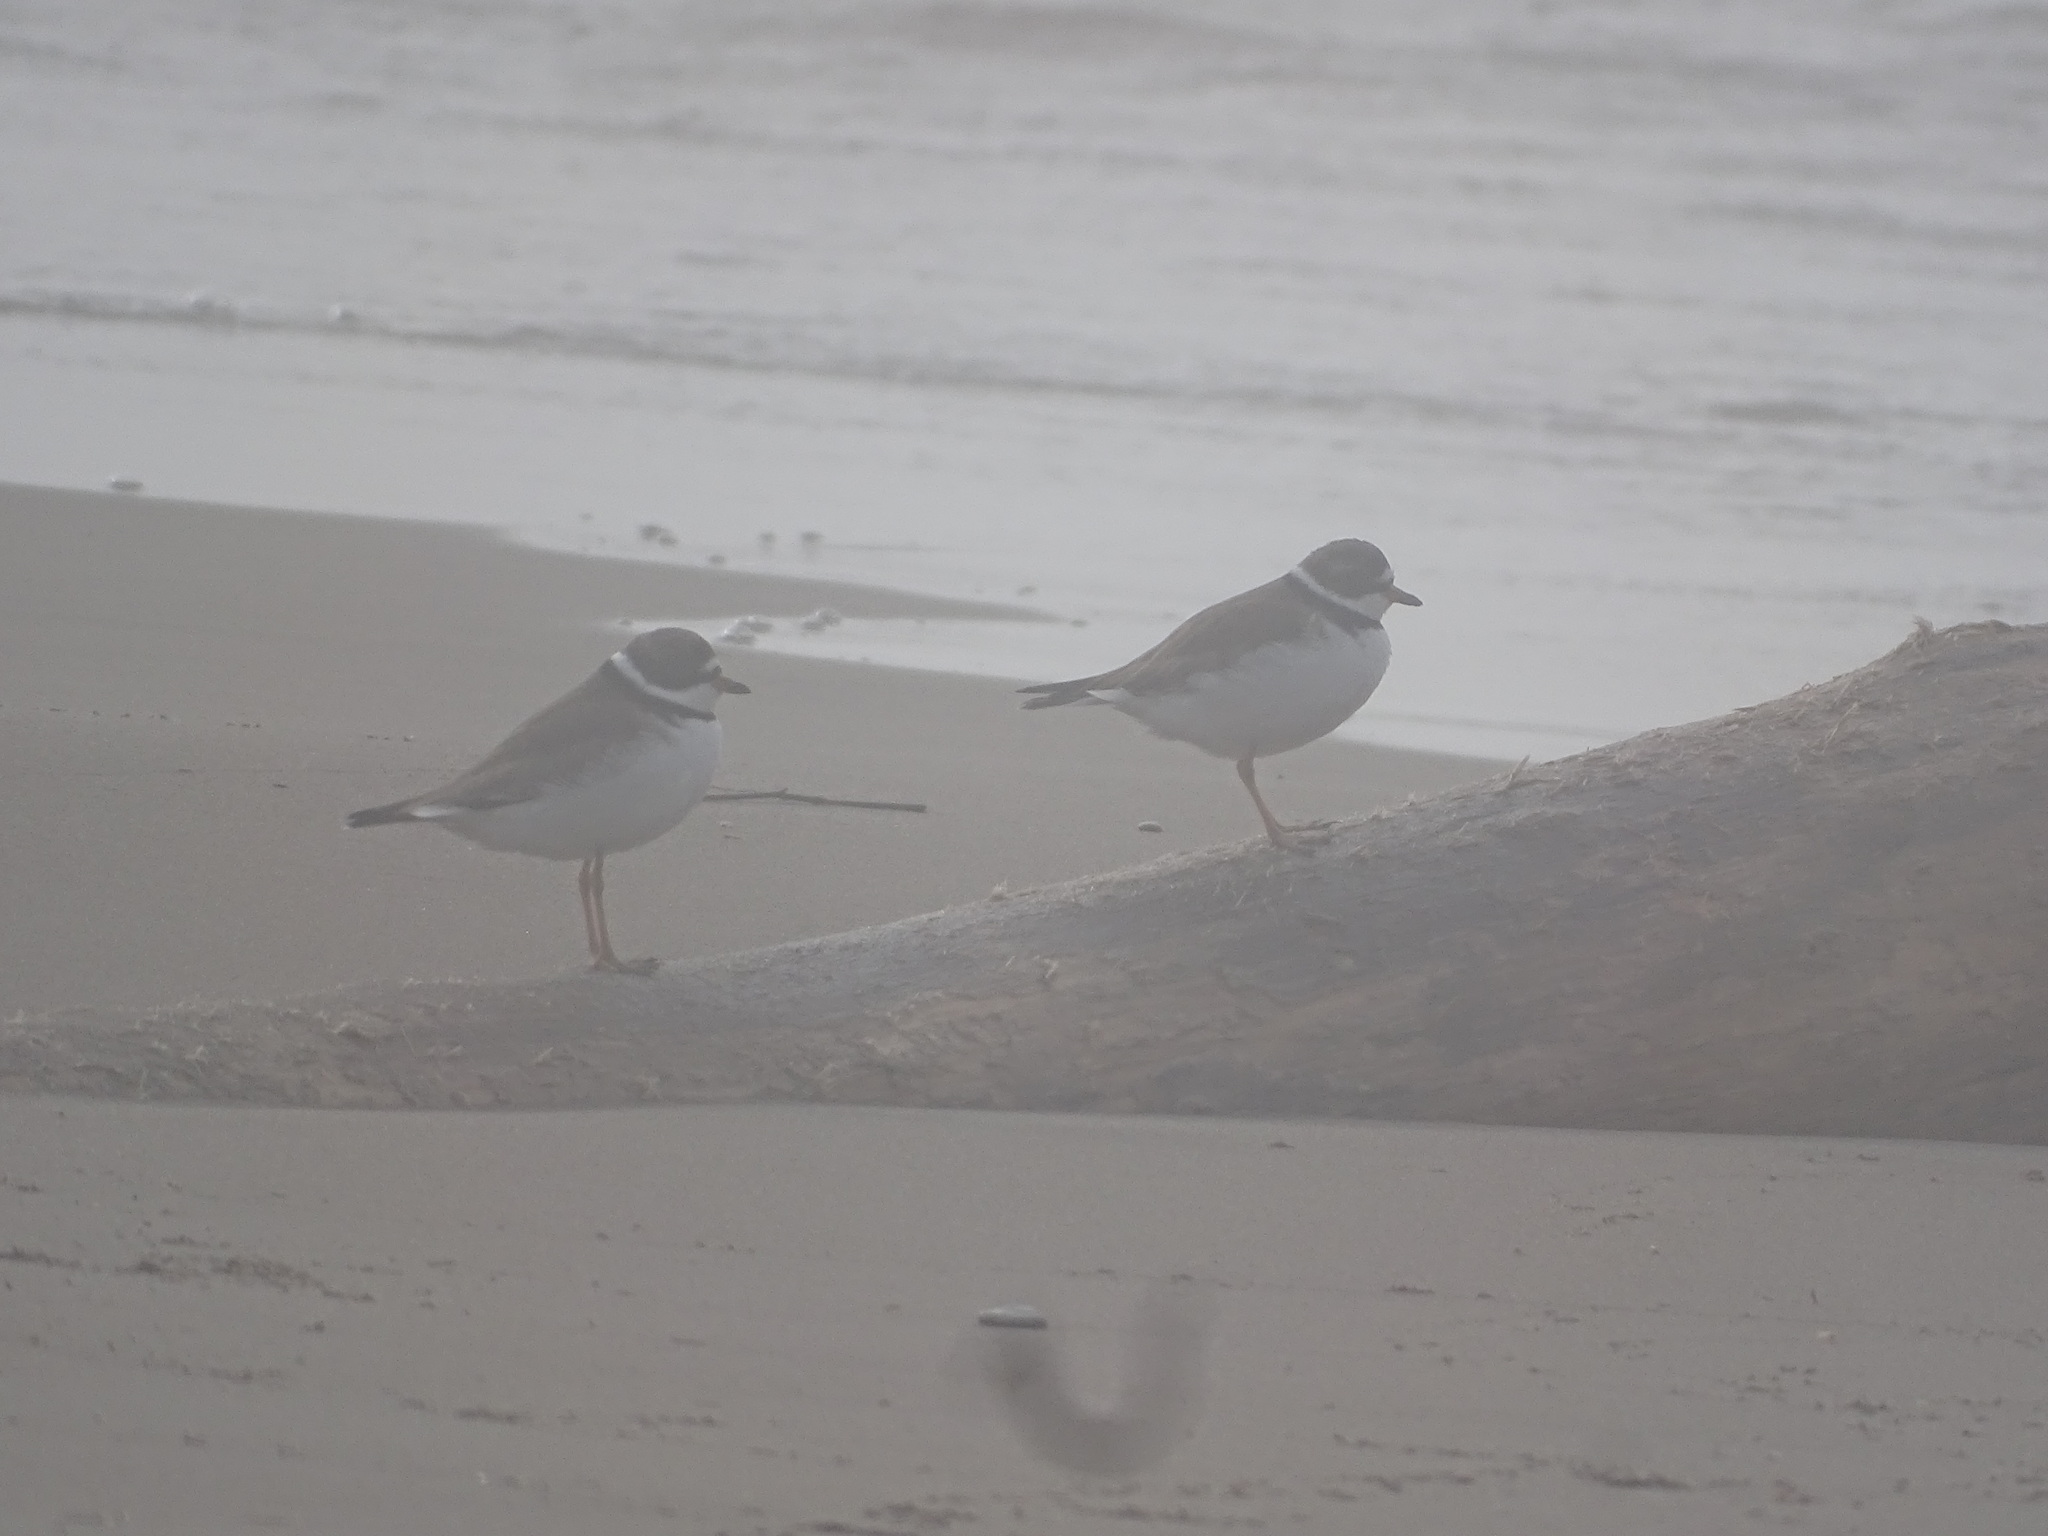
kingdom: Animalia
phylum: Chordata
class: Aves
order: Charadriiformes
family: Charadriidae
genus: Charadrius
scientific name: Charadrius semipalmatus
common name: Semipalmated plover
